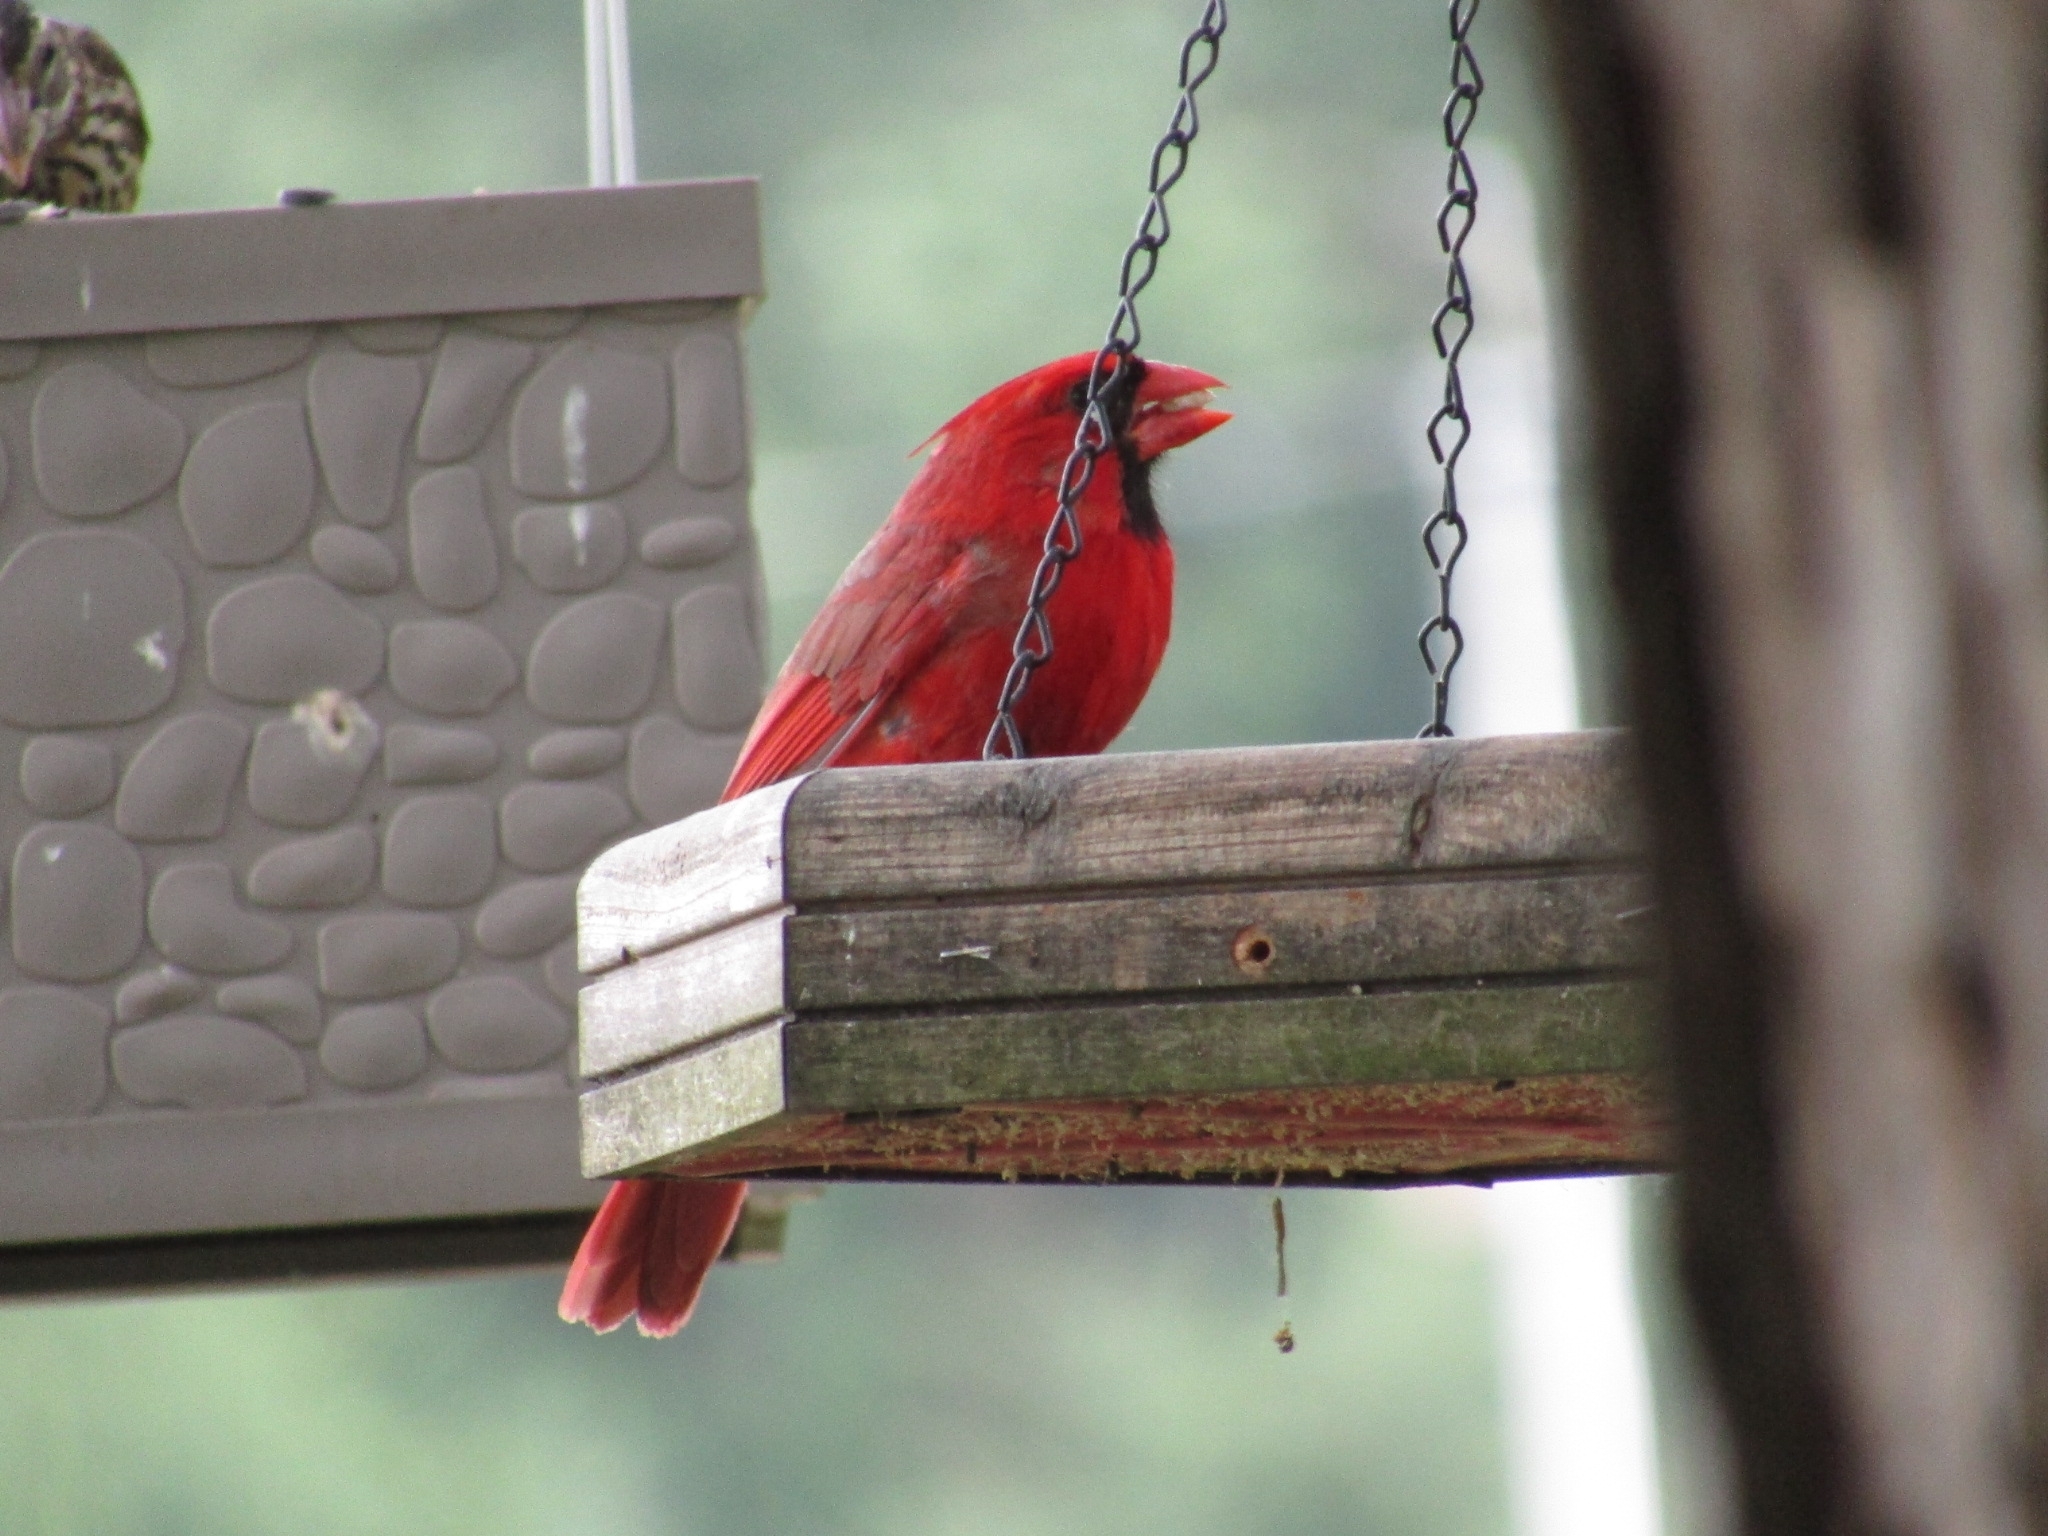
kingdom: Animalia
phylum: Chordata
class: Aves
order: Passeriformes
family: Cardinalidae
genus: Cardinalis
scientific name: Cardinalis cardinalis
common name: Northern cardinal
